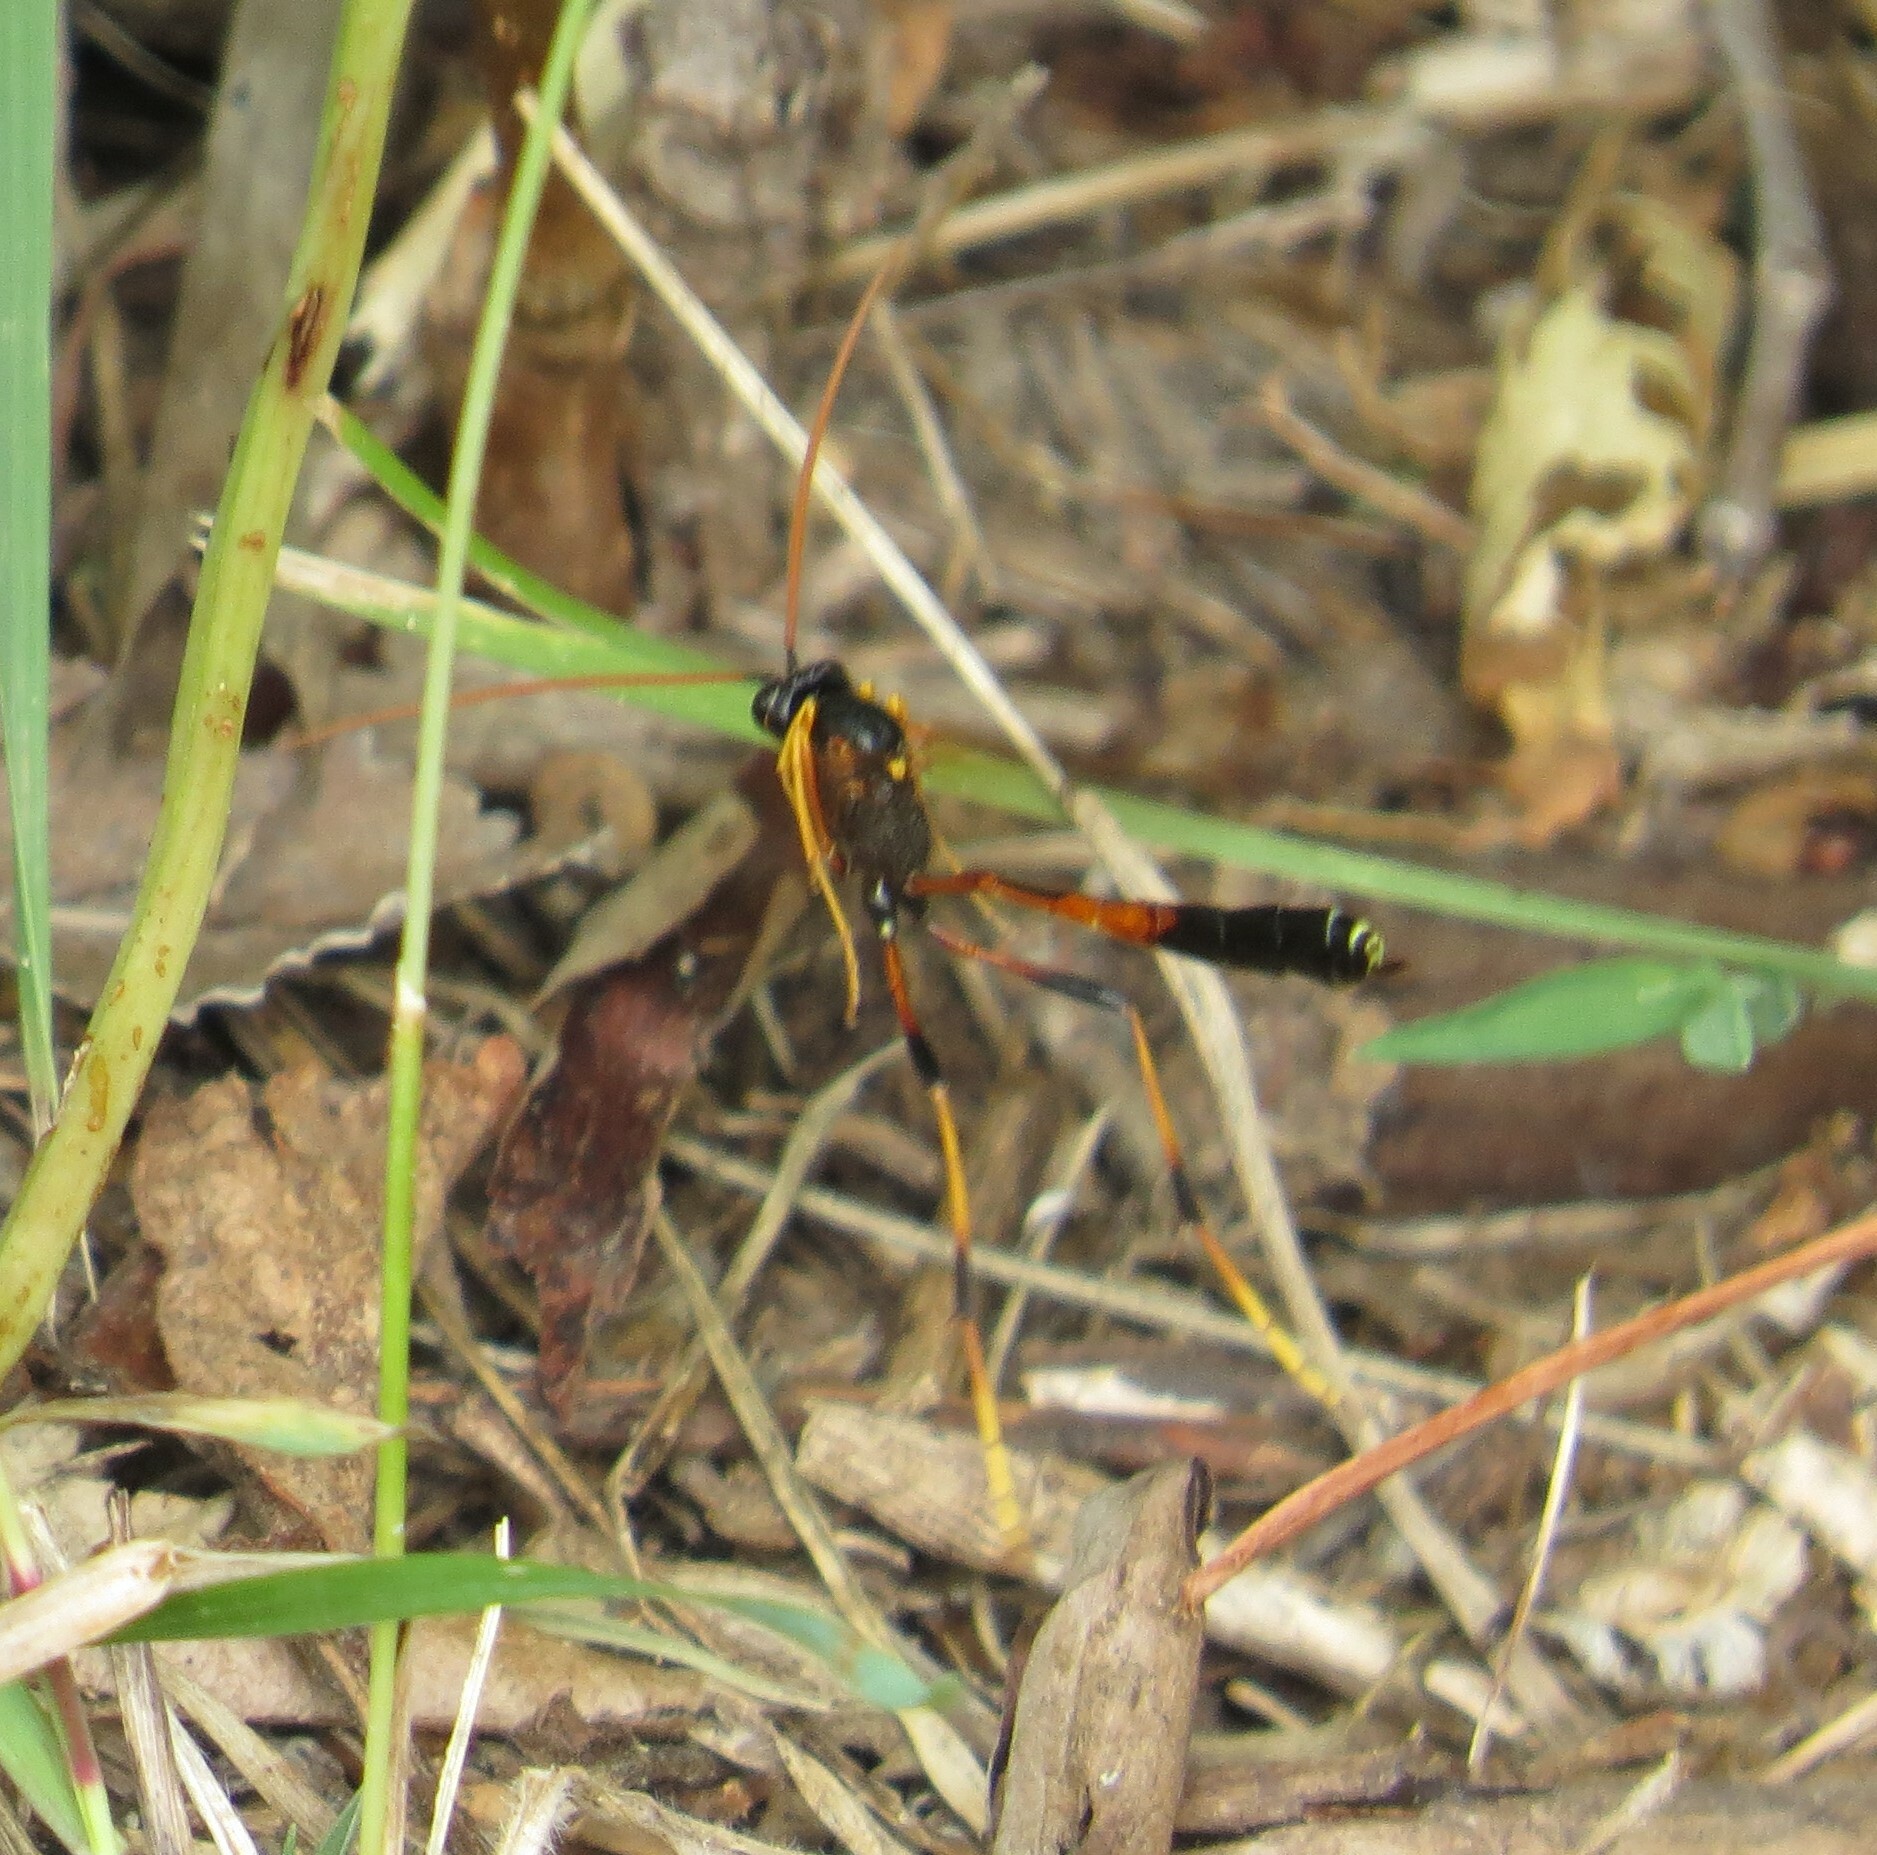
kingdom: Animalia
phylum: Arthropoda
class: Insecta
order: Hymenoptera
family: Ichneumonidae
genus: Therion
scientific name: Therion circumflexum
